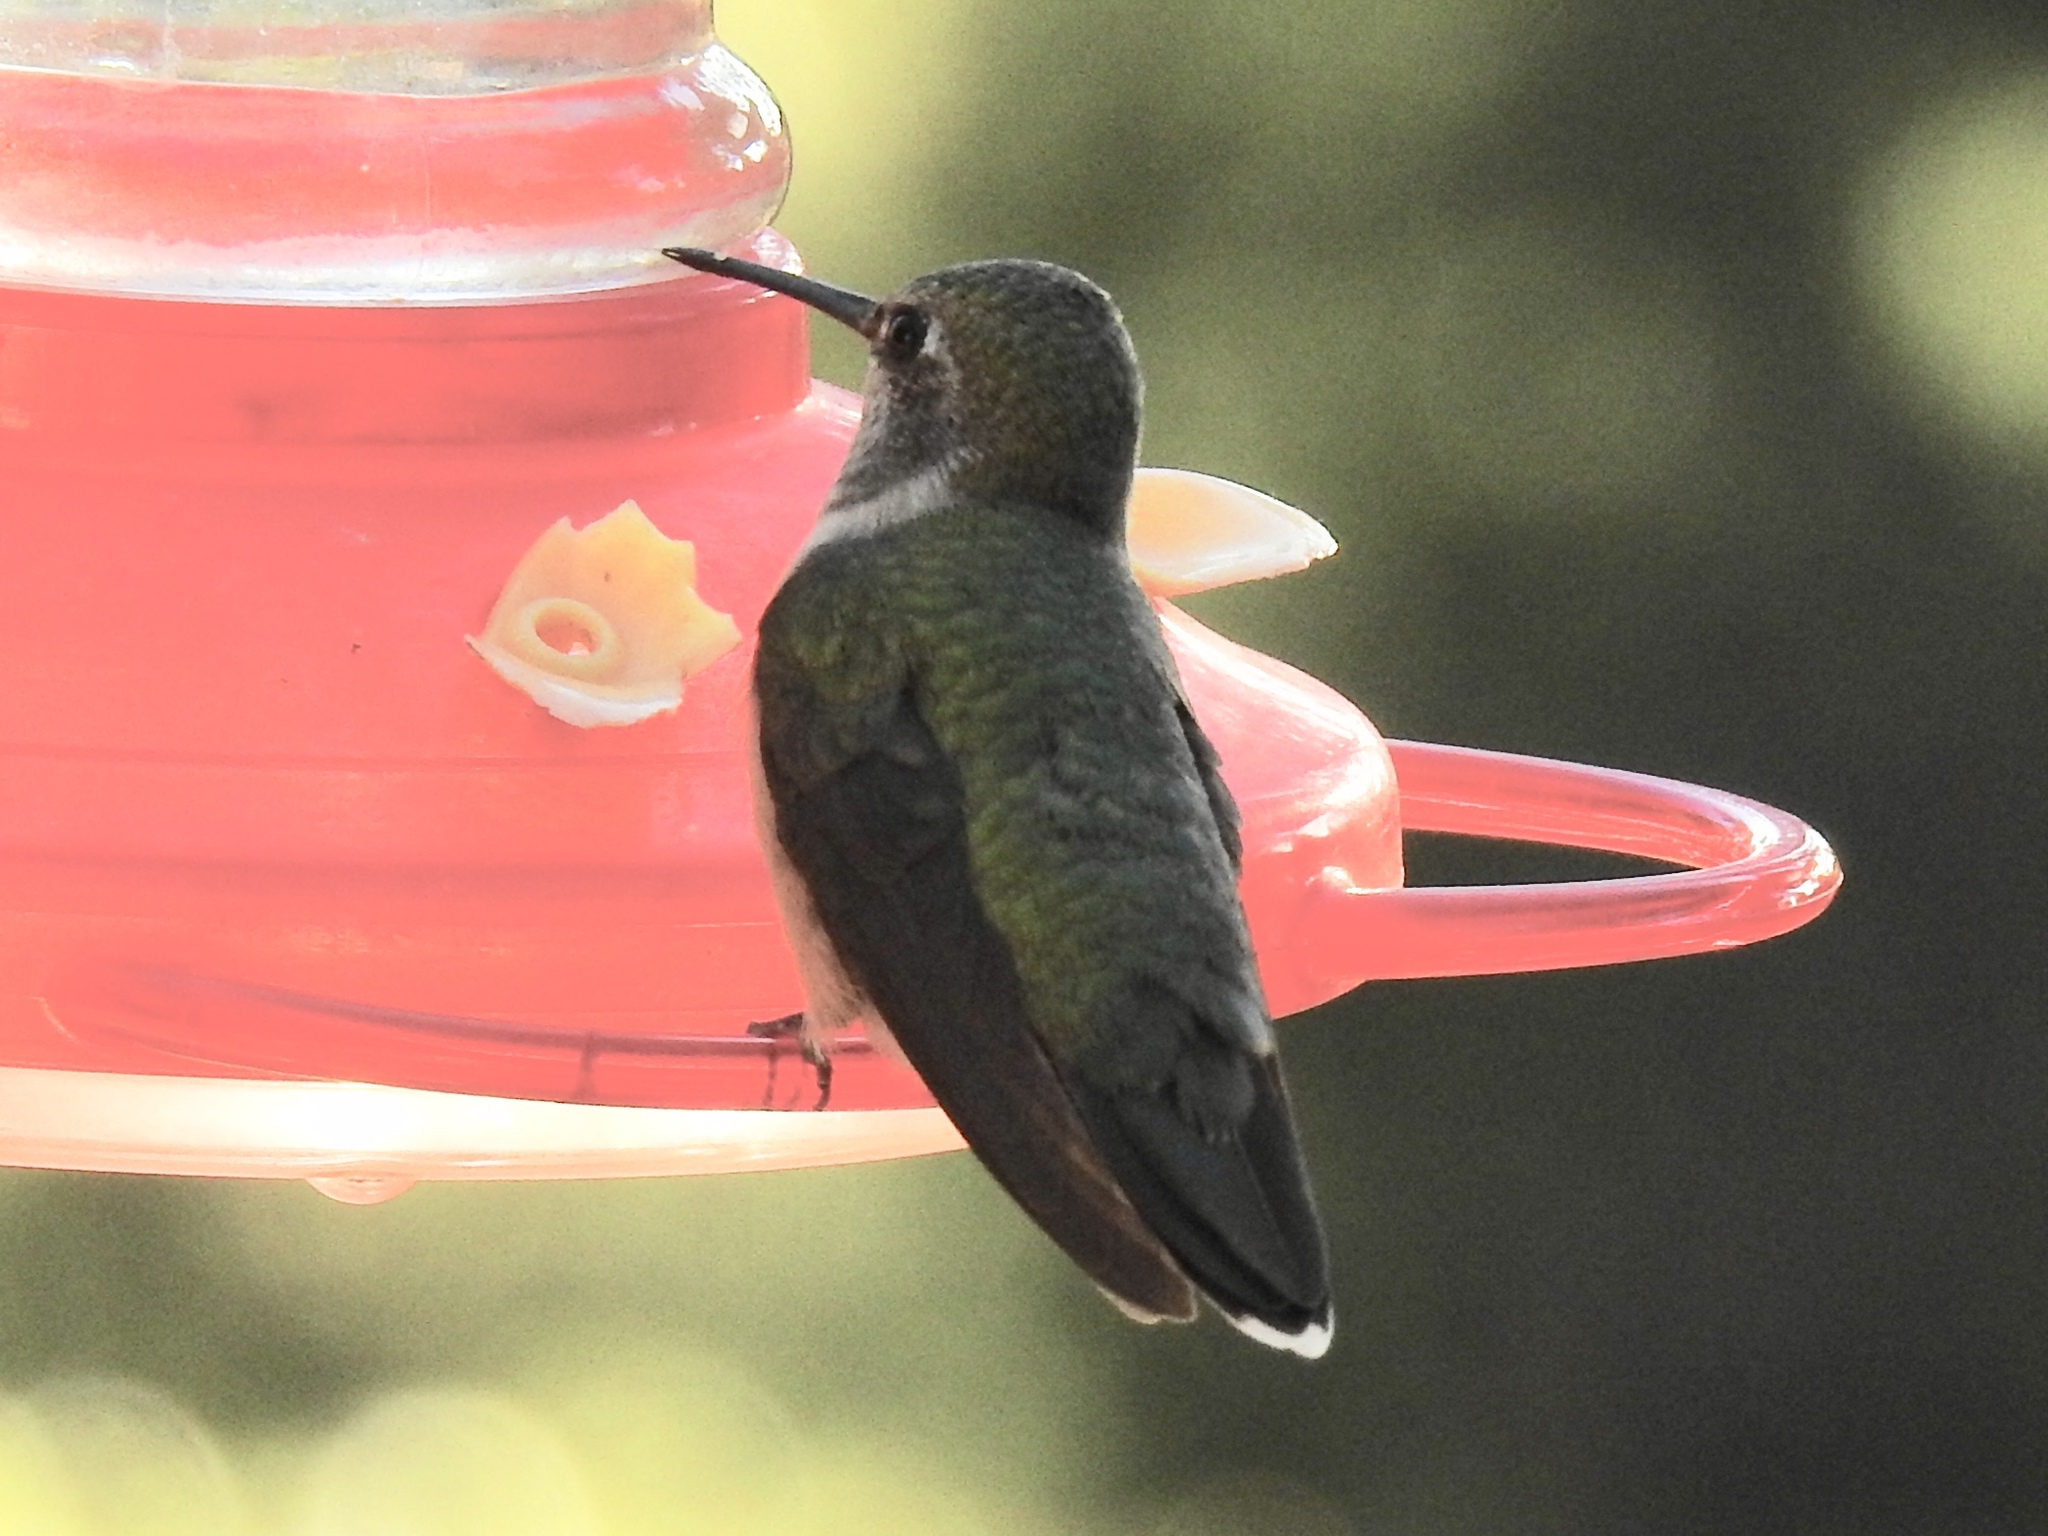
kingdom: Animalia
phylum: Chordata
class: Aves
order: Apodiformes
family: Trochilidae
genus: Archilochus
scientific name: Archilochus alexandri
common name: Black-chinned hummingbird
